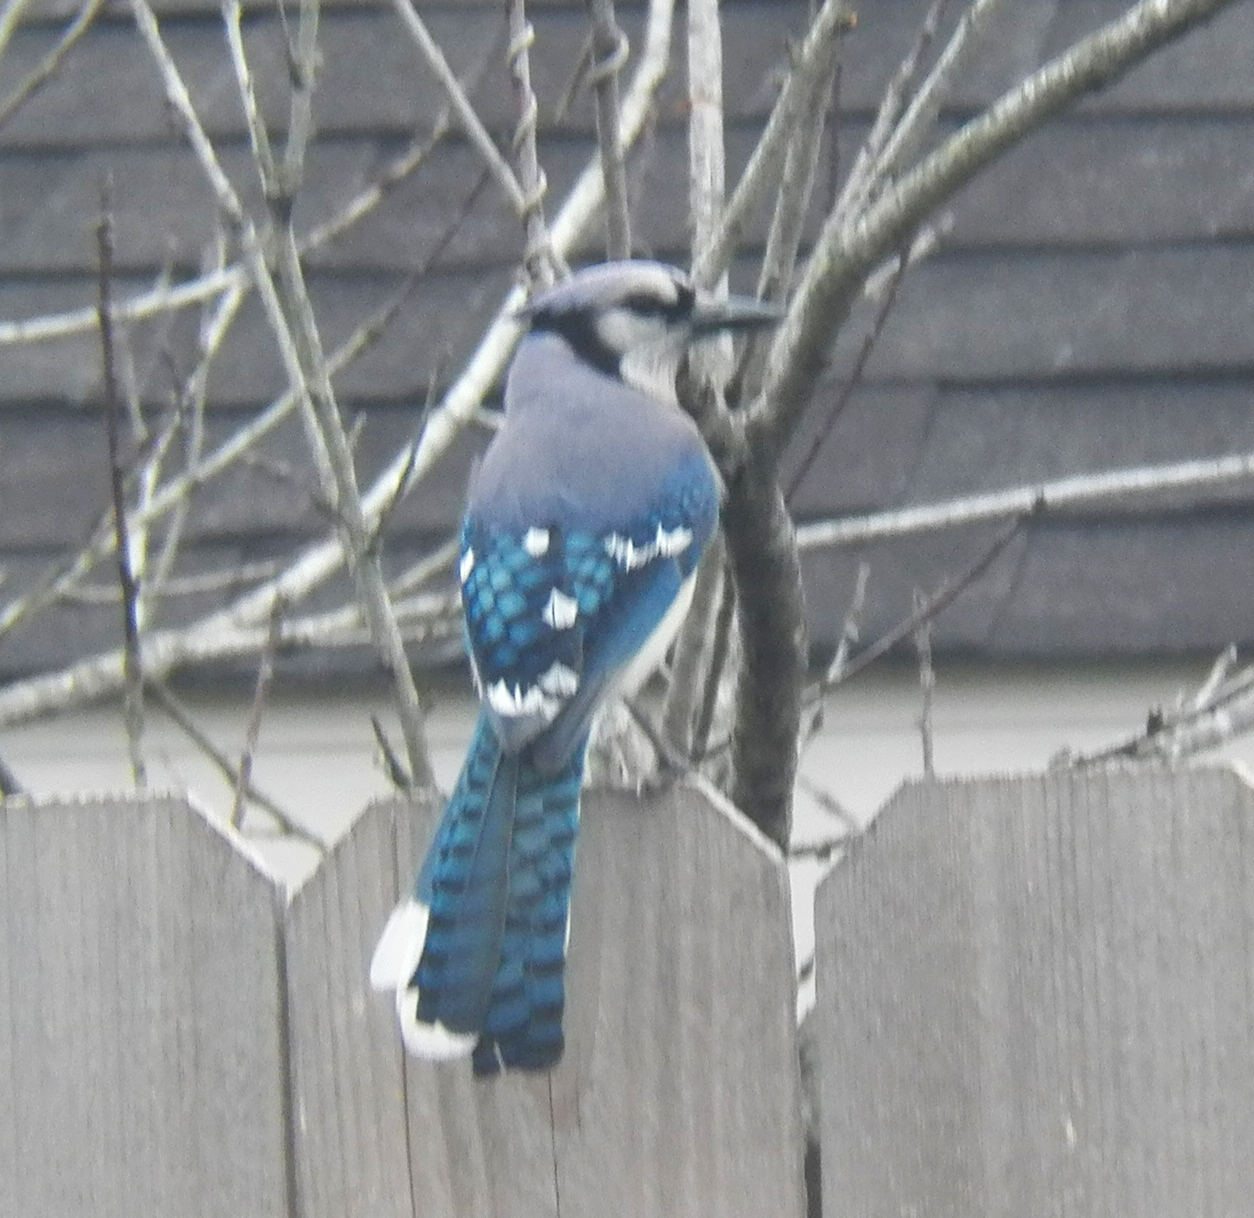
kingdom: Animalia
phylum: Chordata
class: Aves
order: Passeriformes
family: Corvidae
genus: Cyanocitta
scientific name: Cyanocitta cristata
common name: Blue jay
